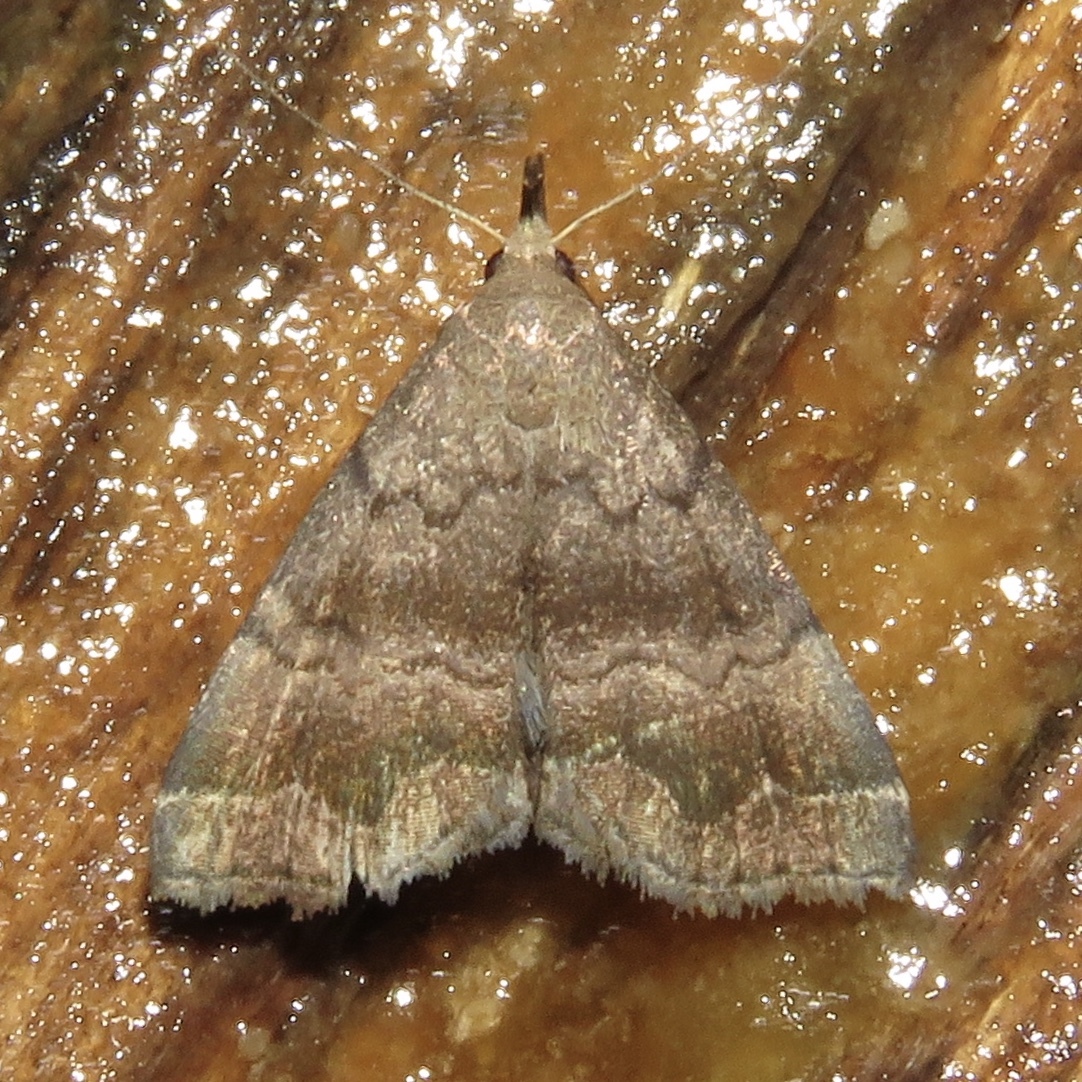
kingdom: Animalia
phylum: Arthropoda
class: Insecta
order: Lepidoptera
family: Erebidae
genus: Phalaenostola
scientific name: Phalaenostola larentioides
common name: Black-banded owlet
